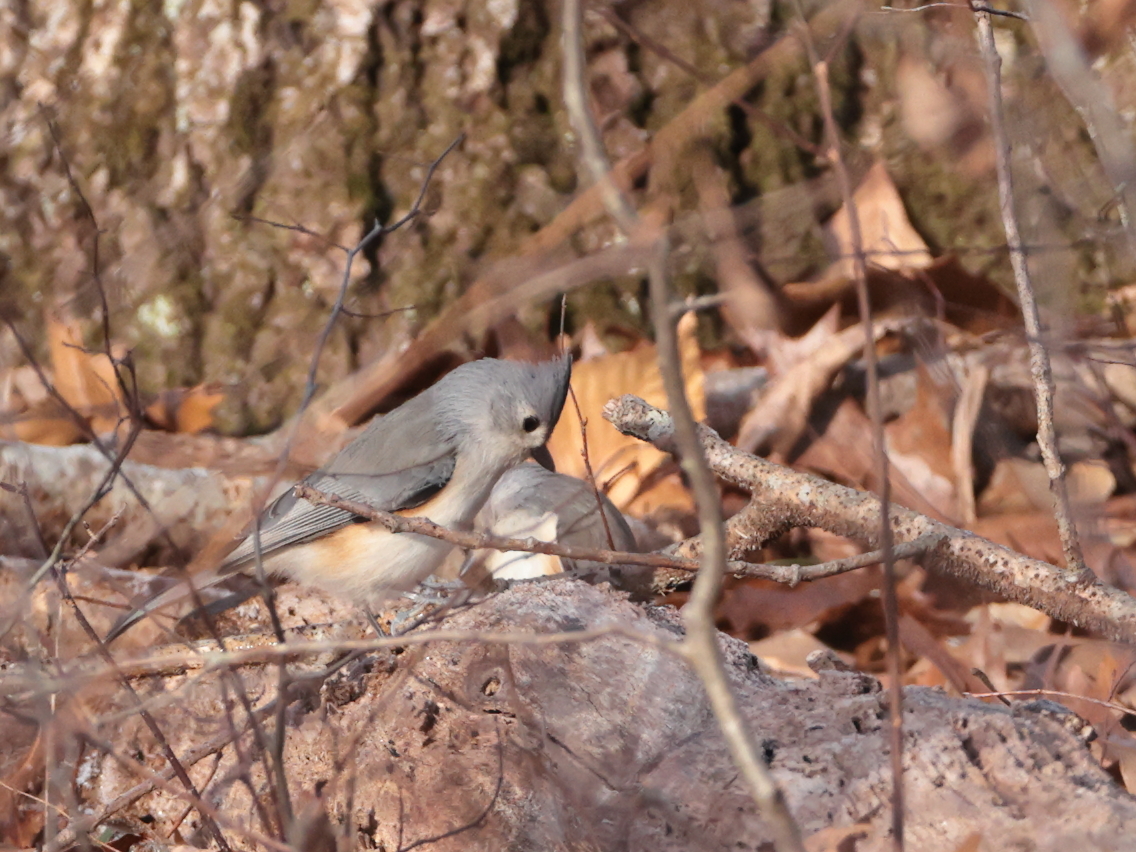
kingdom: Animalia
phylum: Chordata
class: Aves
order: Passeriformes
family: Paridae
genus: Baeolophus
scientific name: Baeolophus bicolor
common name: Tufted titmouse
